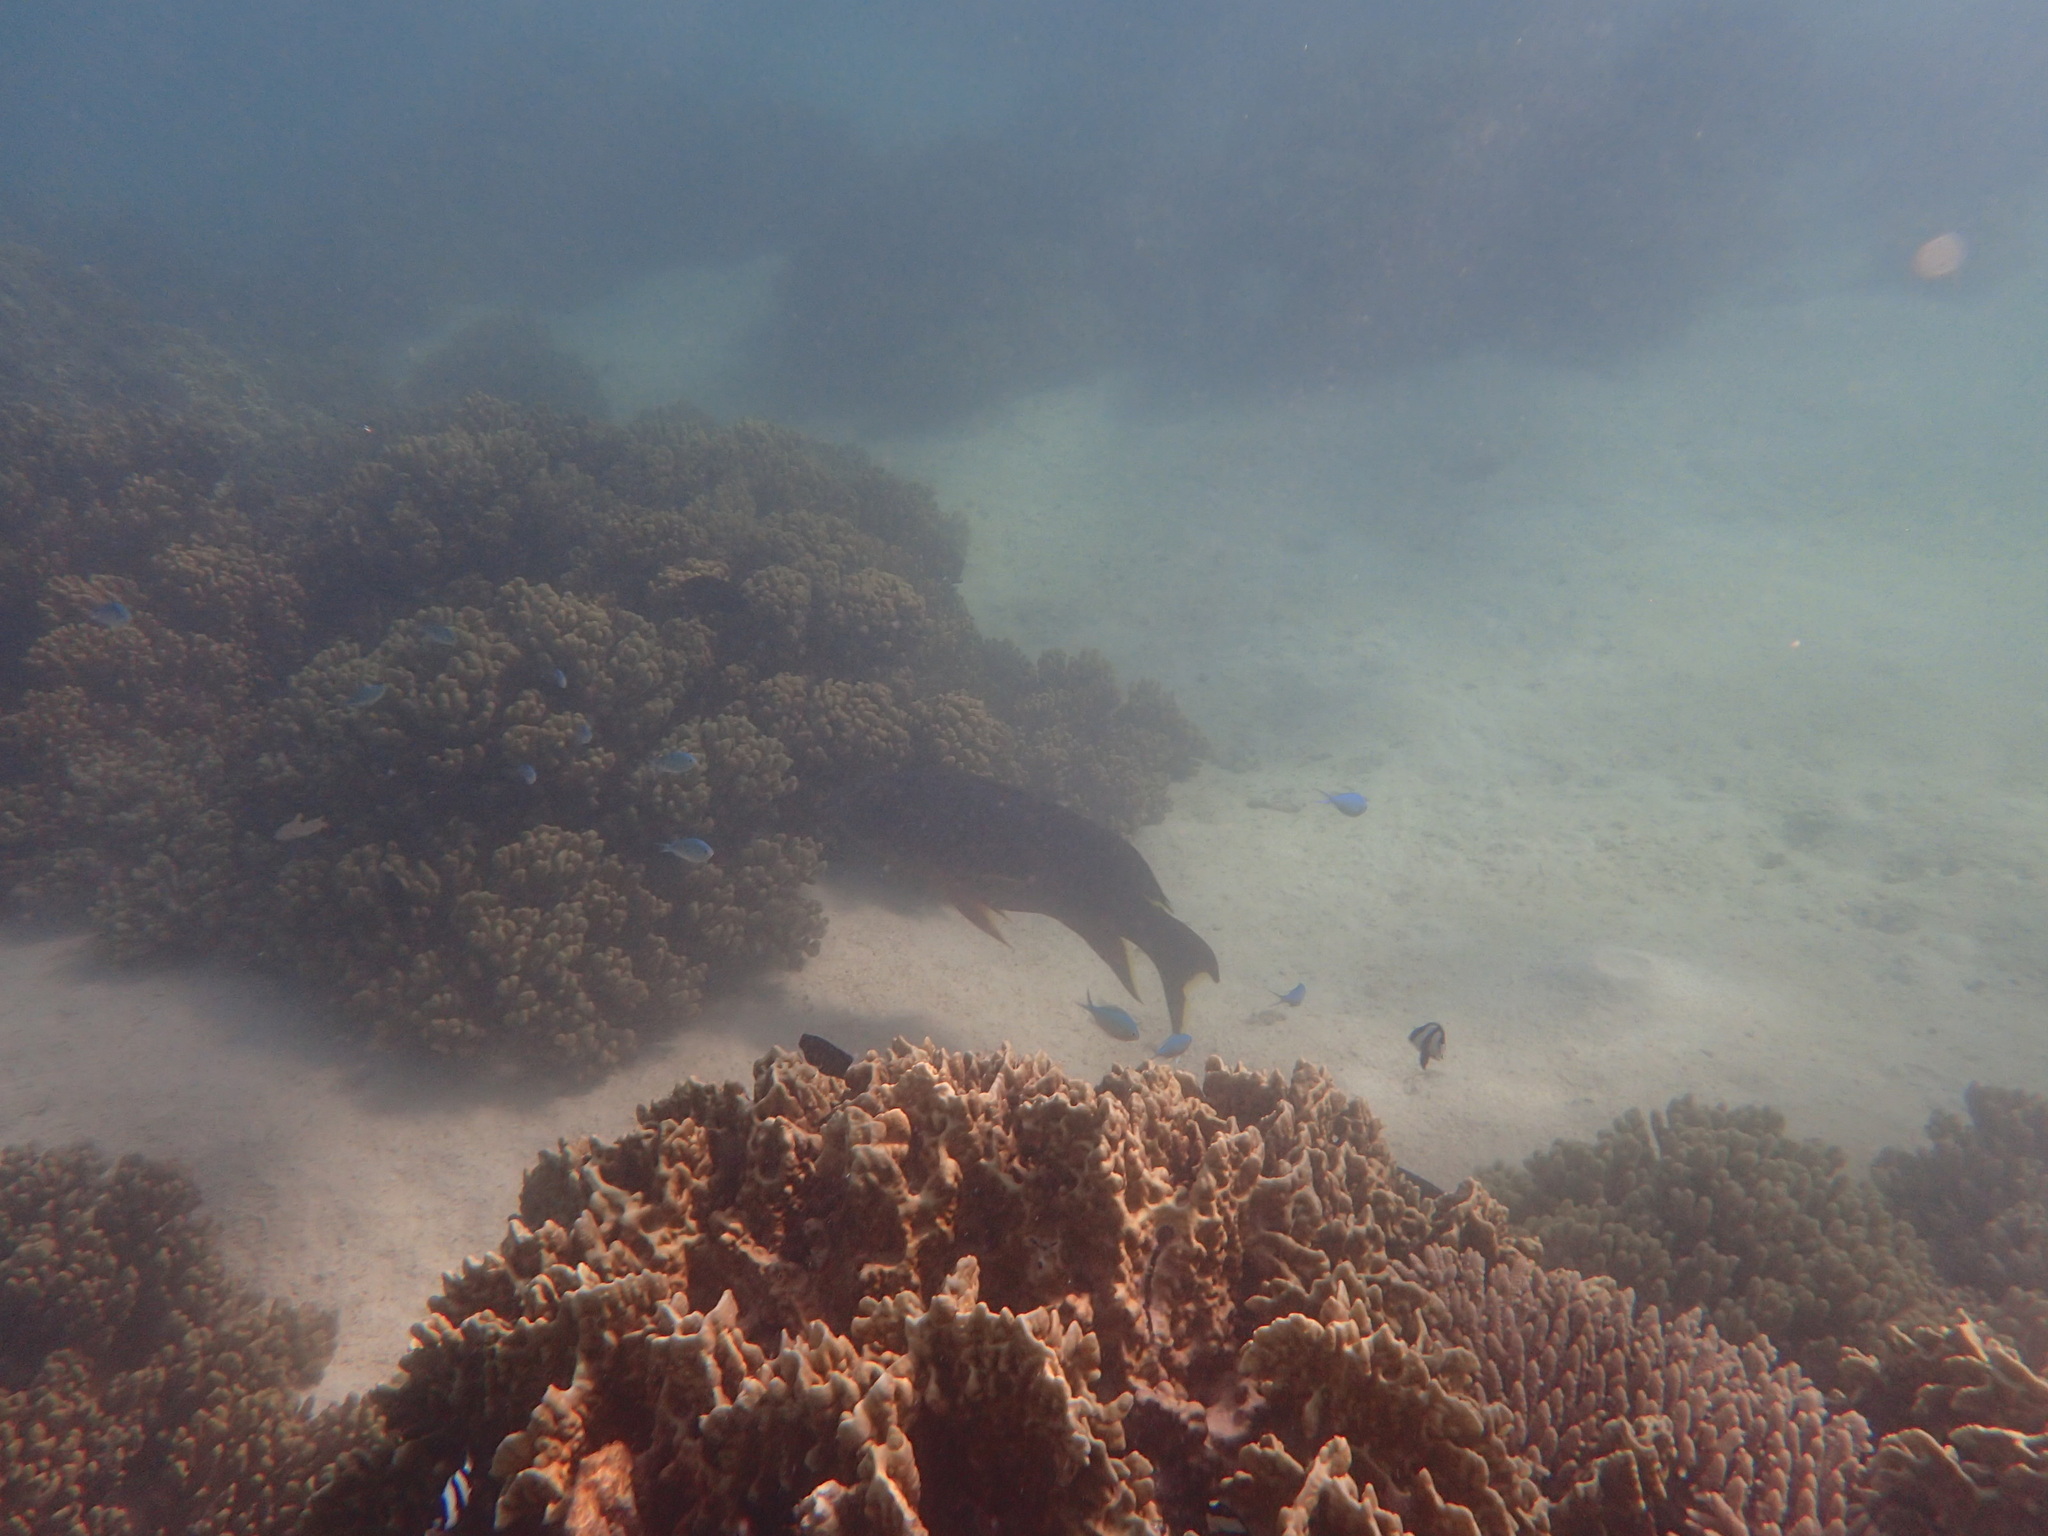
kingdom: Animalia
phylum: Chordata
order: Perciformes
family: Serranidae
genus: Variola
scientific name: Variola louti
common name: Yellow-edged lyretail
